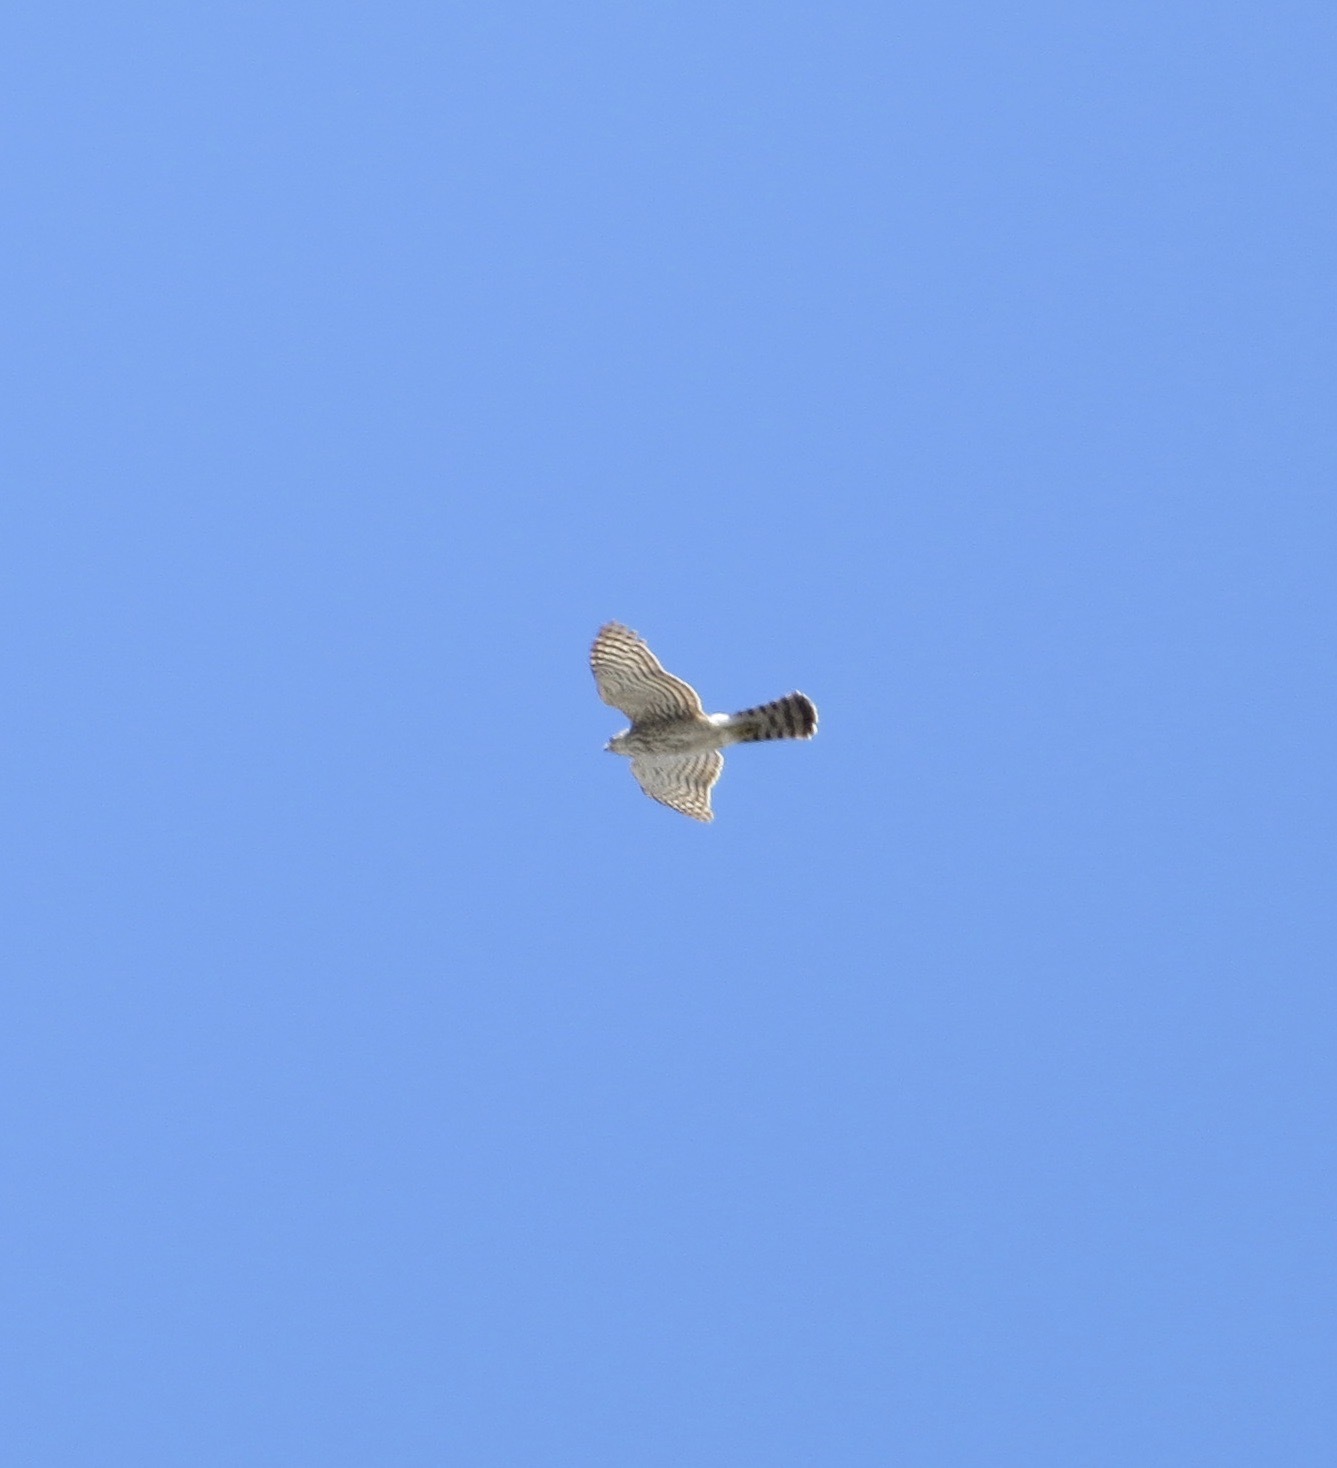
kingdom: Animalia
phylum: Chordata
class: Aves
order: Accipitriformes
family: Accipitridae
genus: Accipiter
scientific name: Accipiter cooperii
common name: Cooper's hawk
